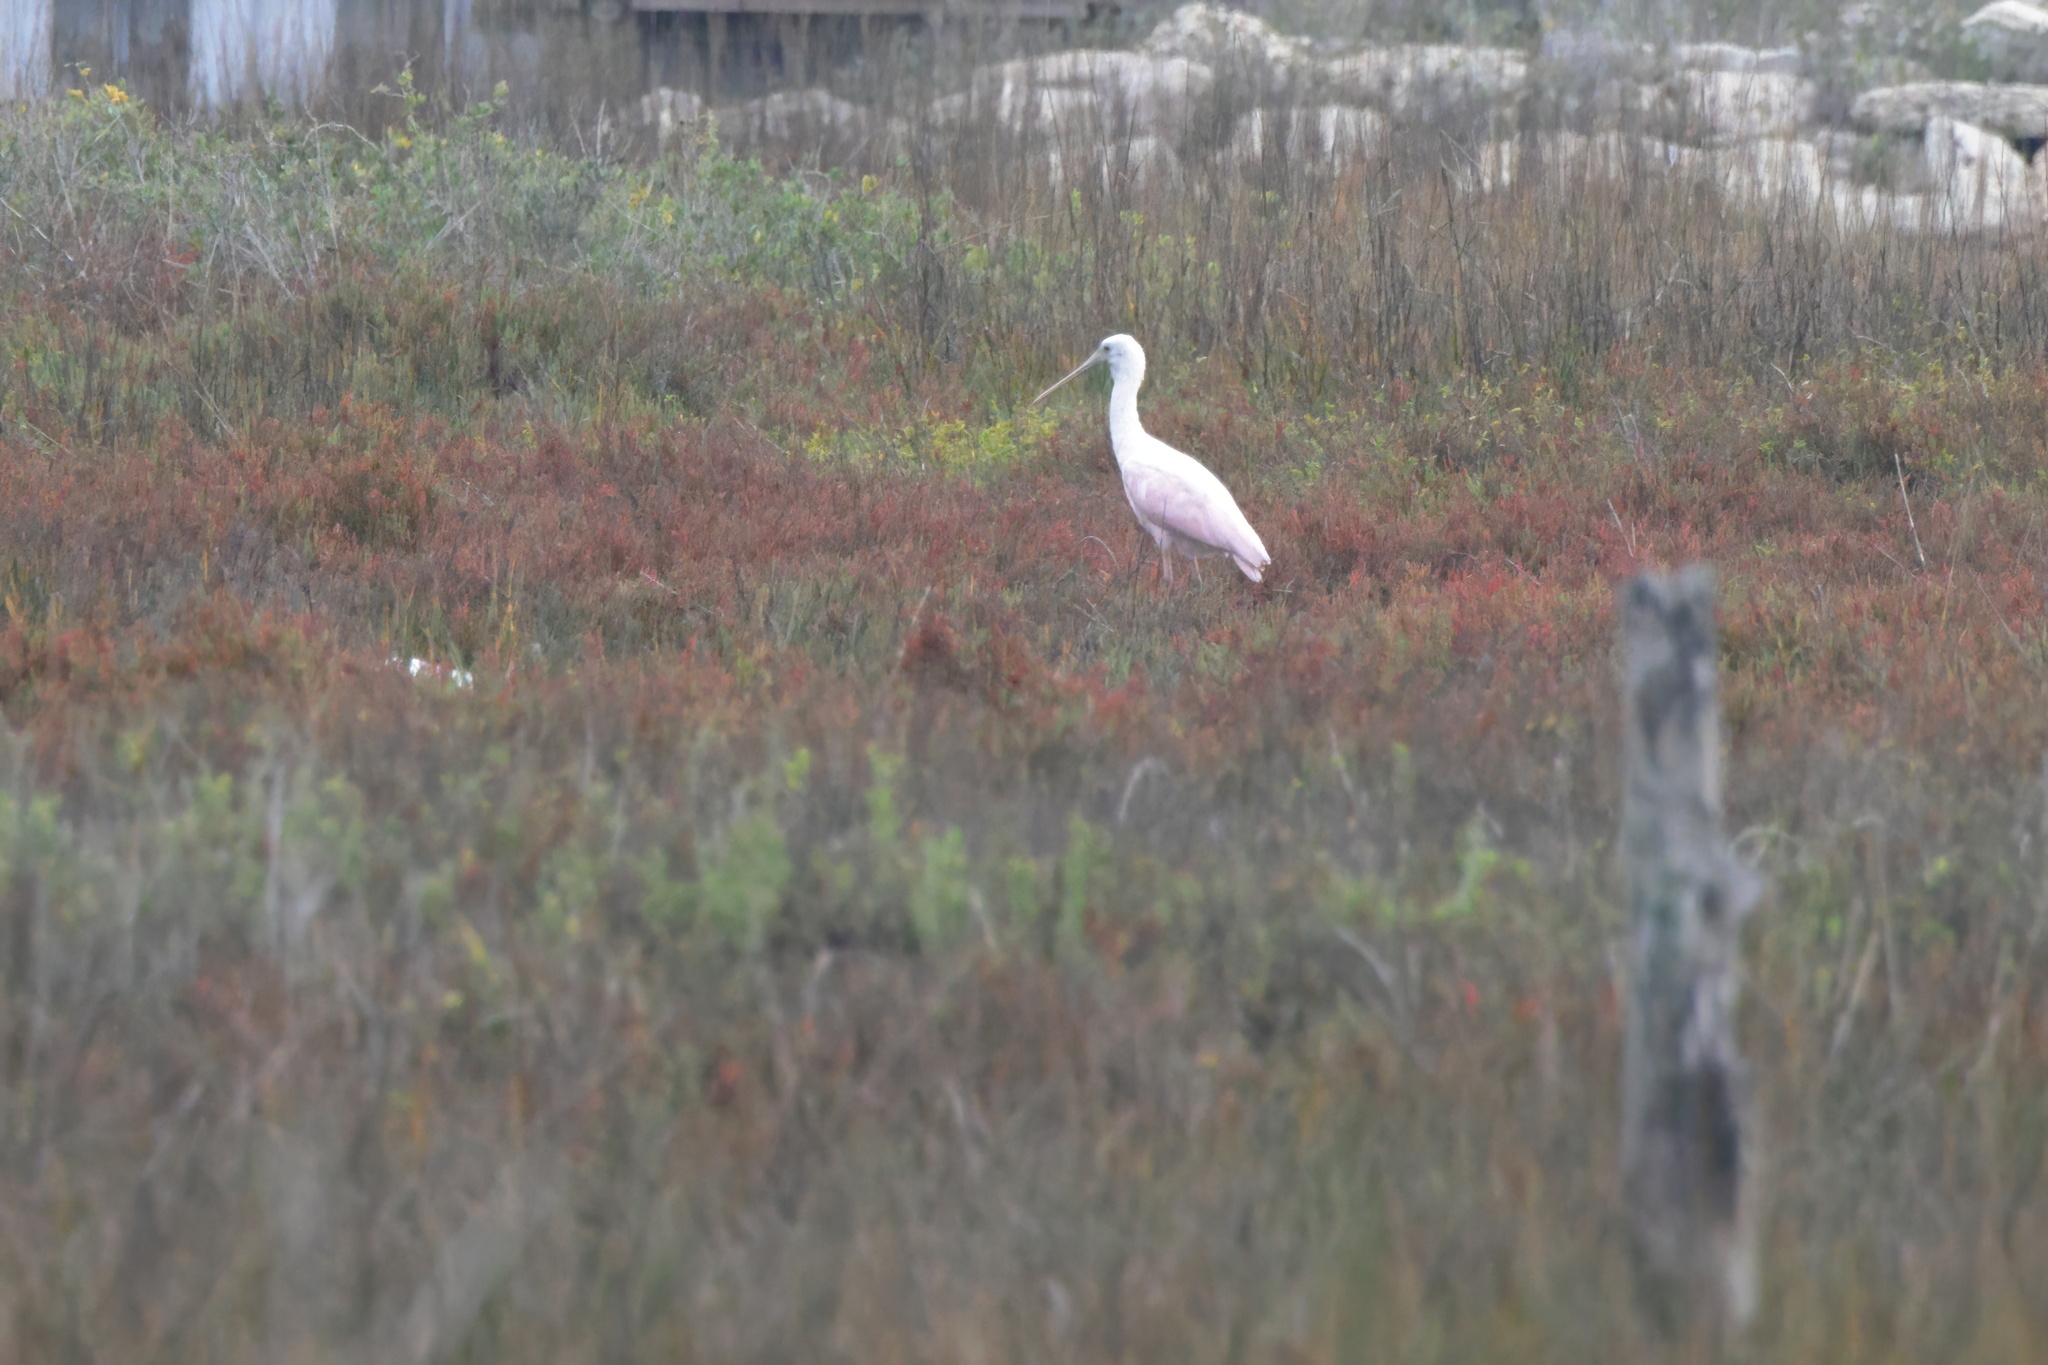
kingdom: Animalia
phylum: Chordata
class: Aves
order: Pelecaniformes
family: Threskiornithidae
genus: Platalea
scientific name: Platalea ajaja
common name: Roseate spoonbill
